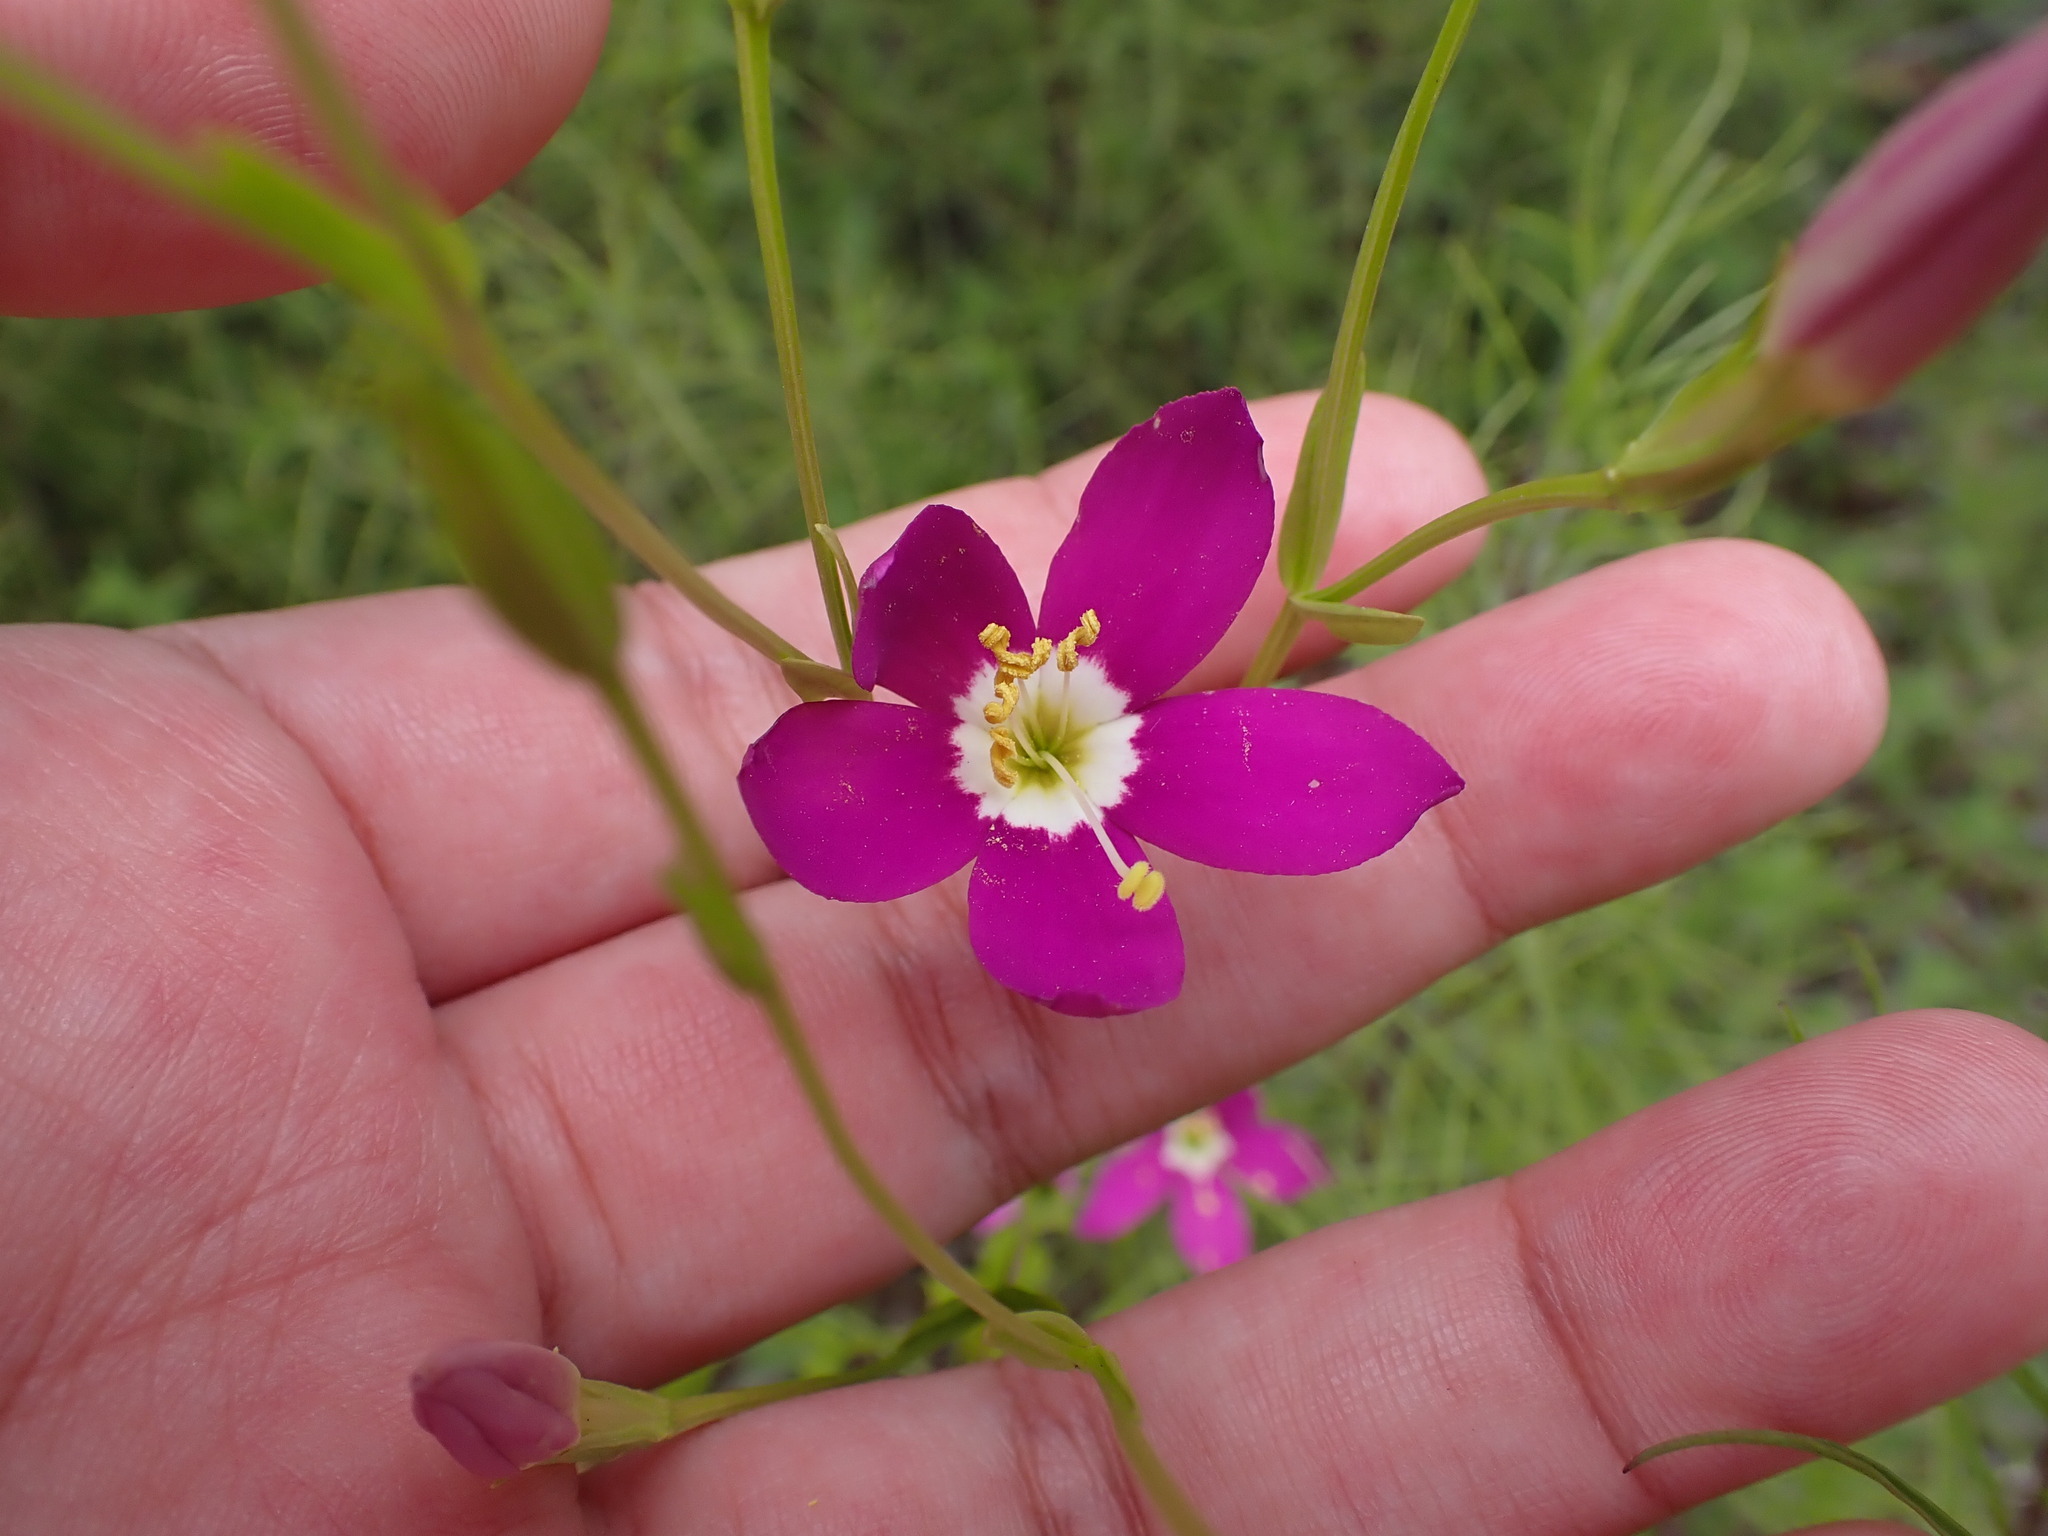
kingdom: Plantae
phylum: Tracheophyta
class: Magnoliopsida
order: Gentianales
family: Gentianaceae
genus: Zeltnera
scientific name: Zeltnera venusta
